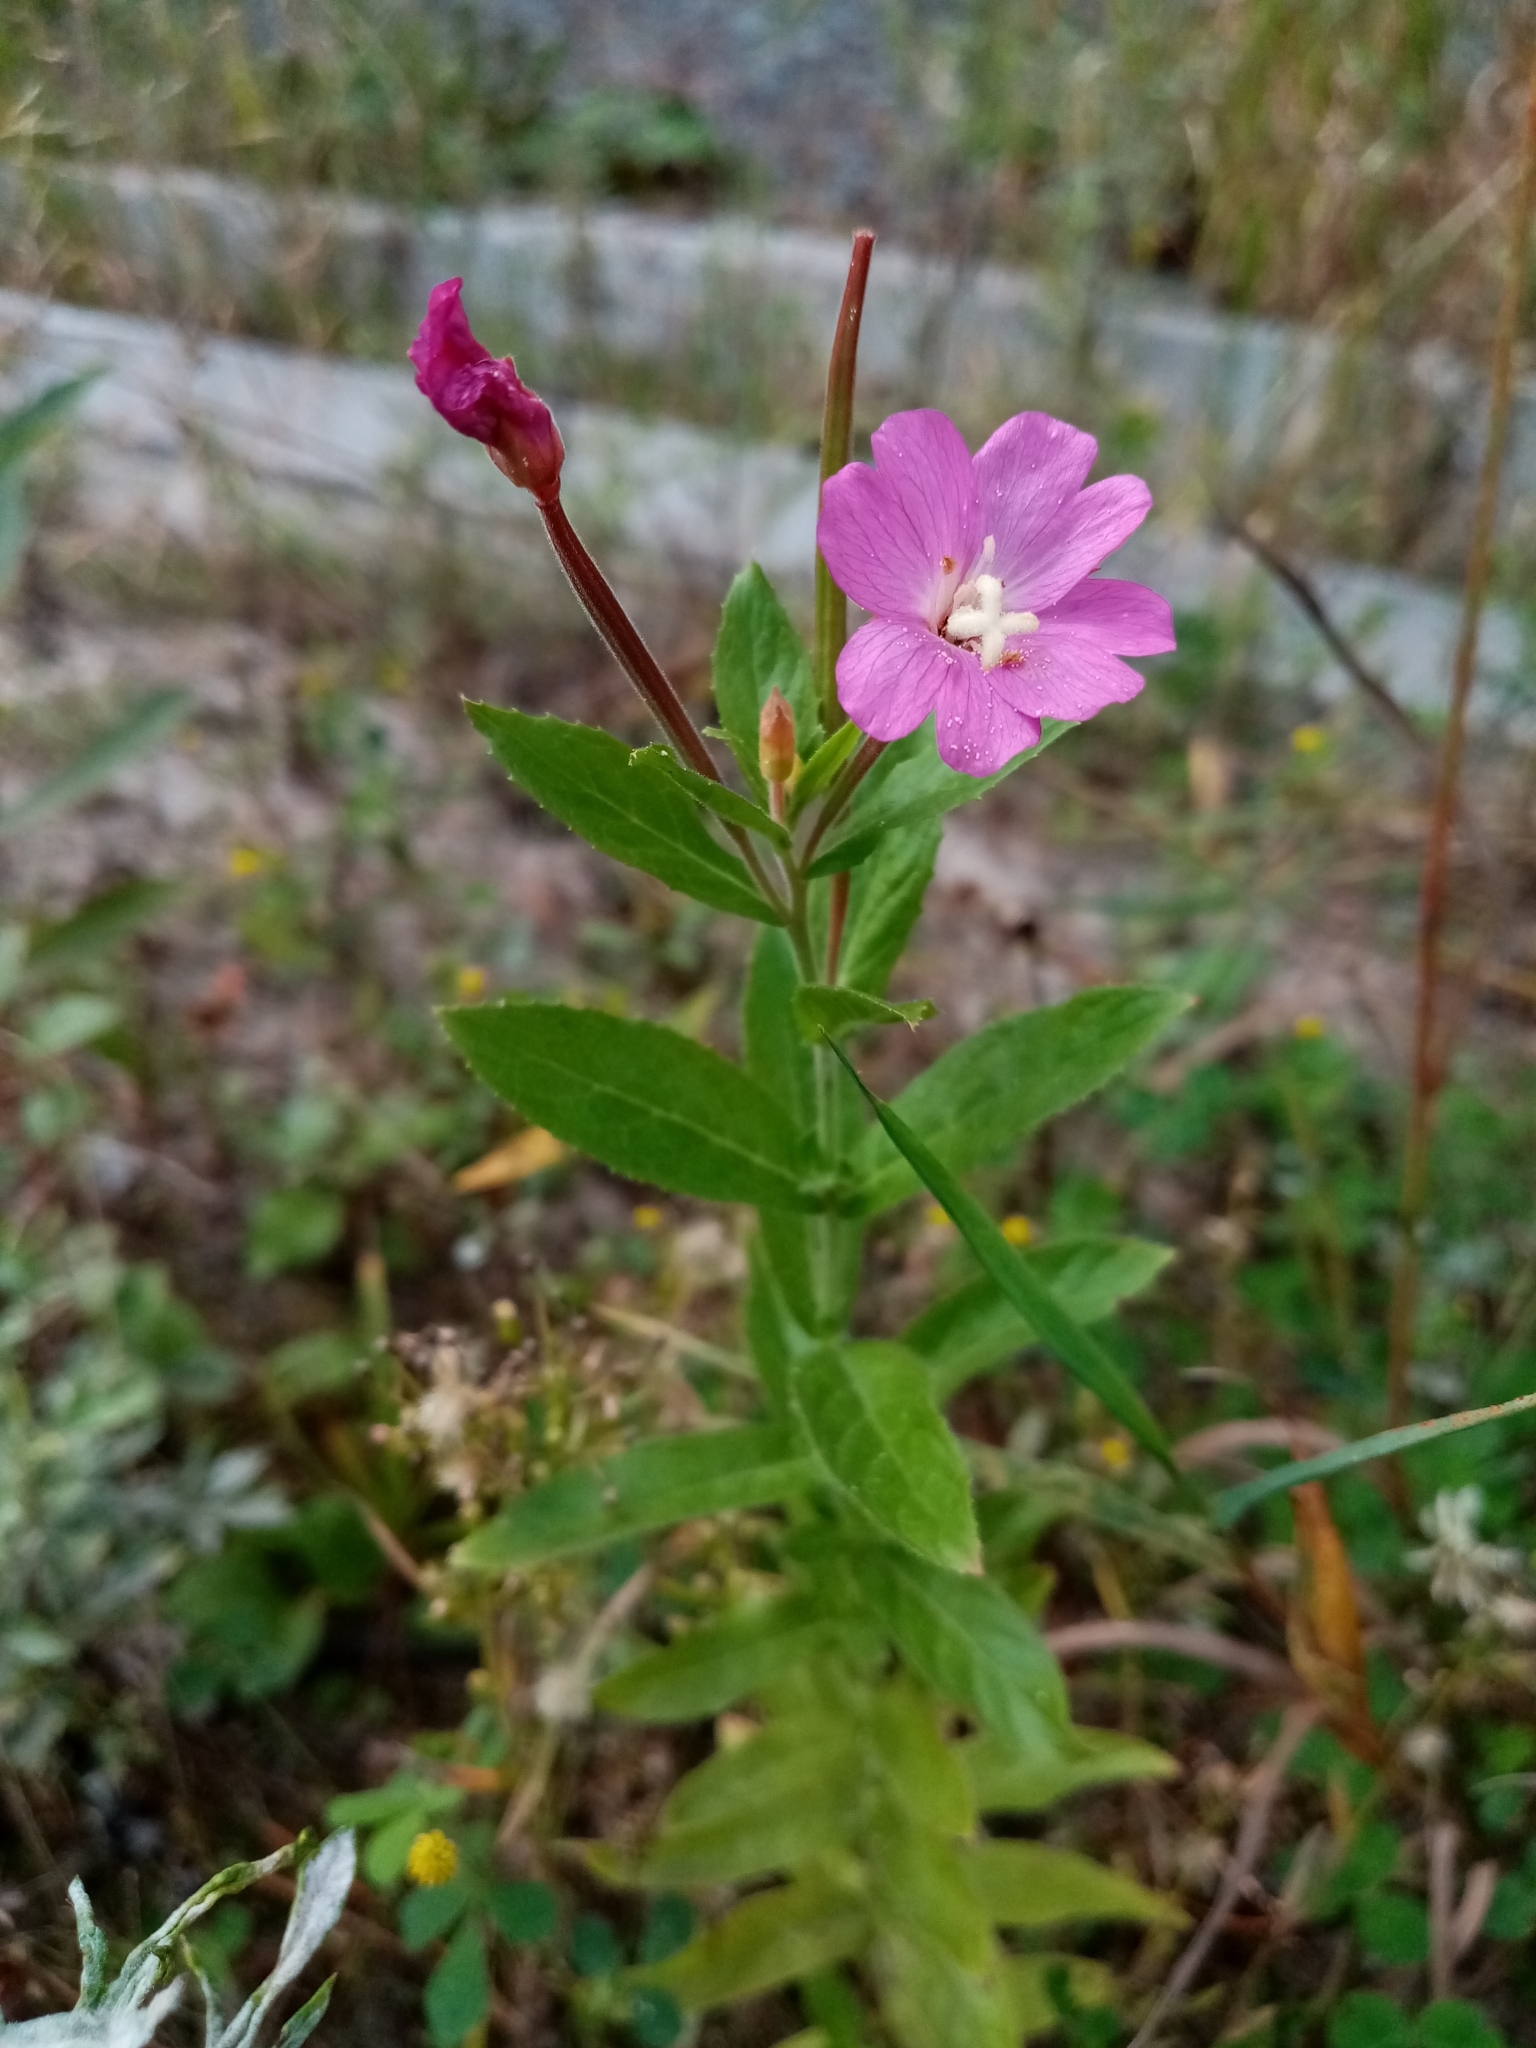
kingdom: Plantae
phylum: Tracheophyta
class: Magnoliopsida
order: Myrtales
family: Onagraceae
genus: Epilobium
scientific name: Epilobium hirsutum
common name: Great willowherb
